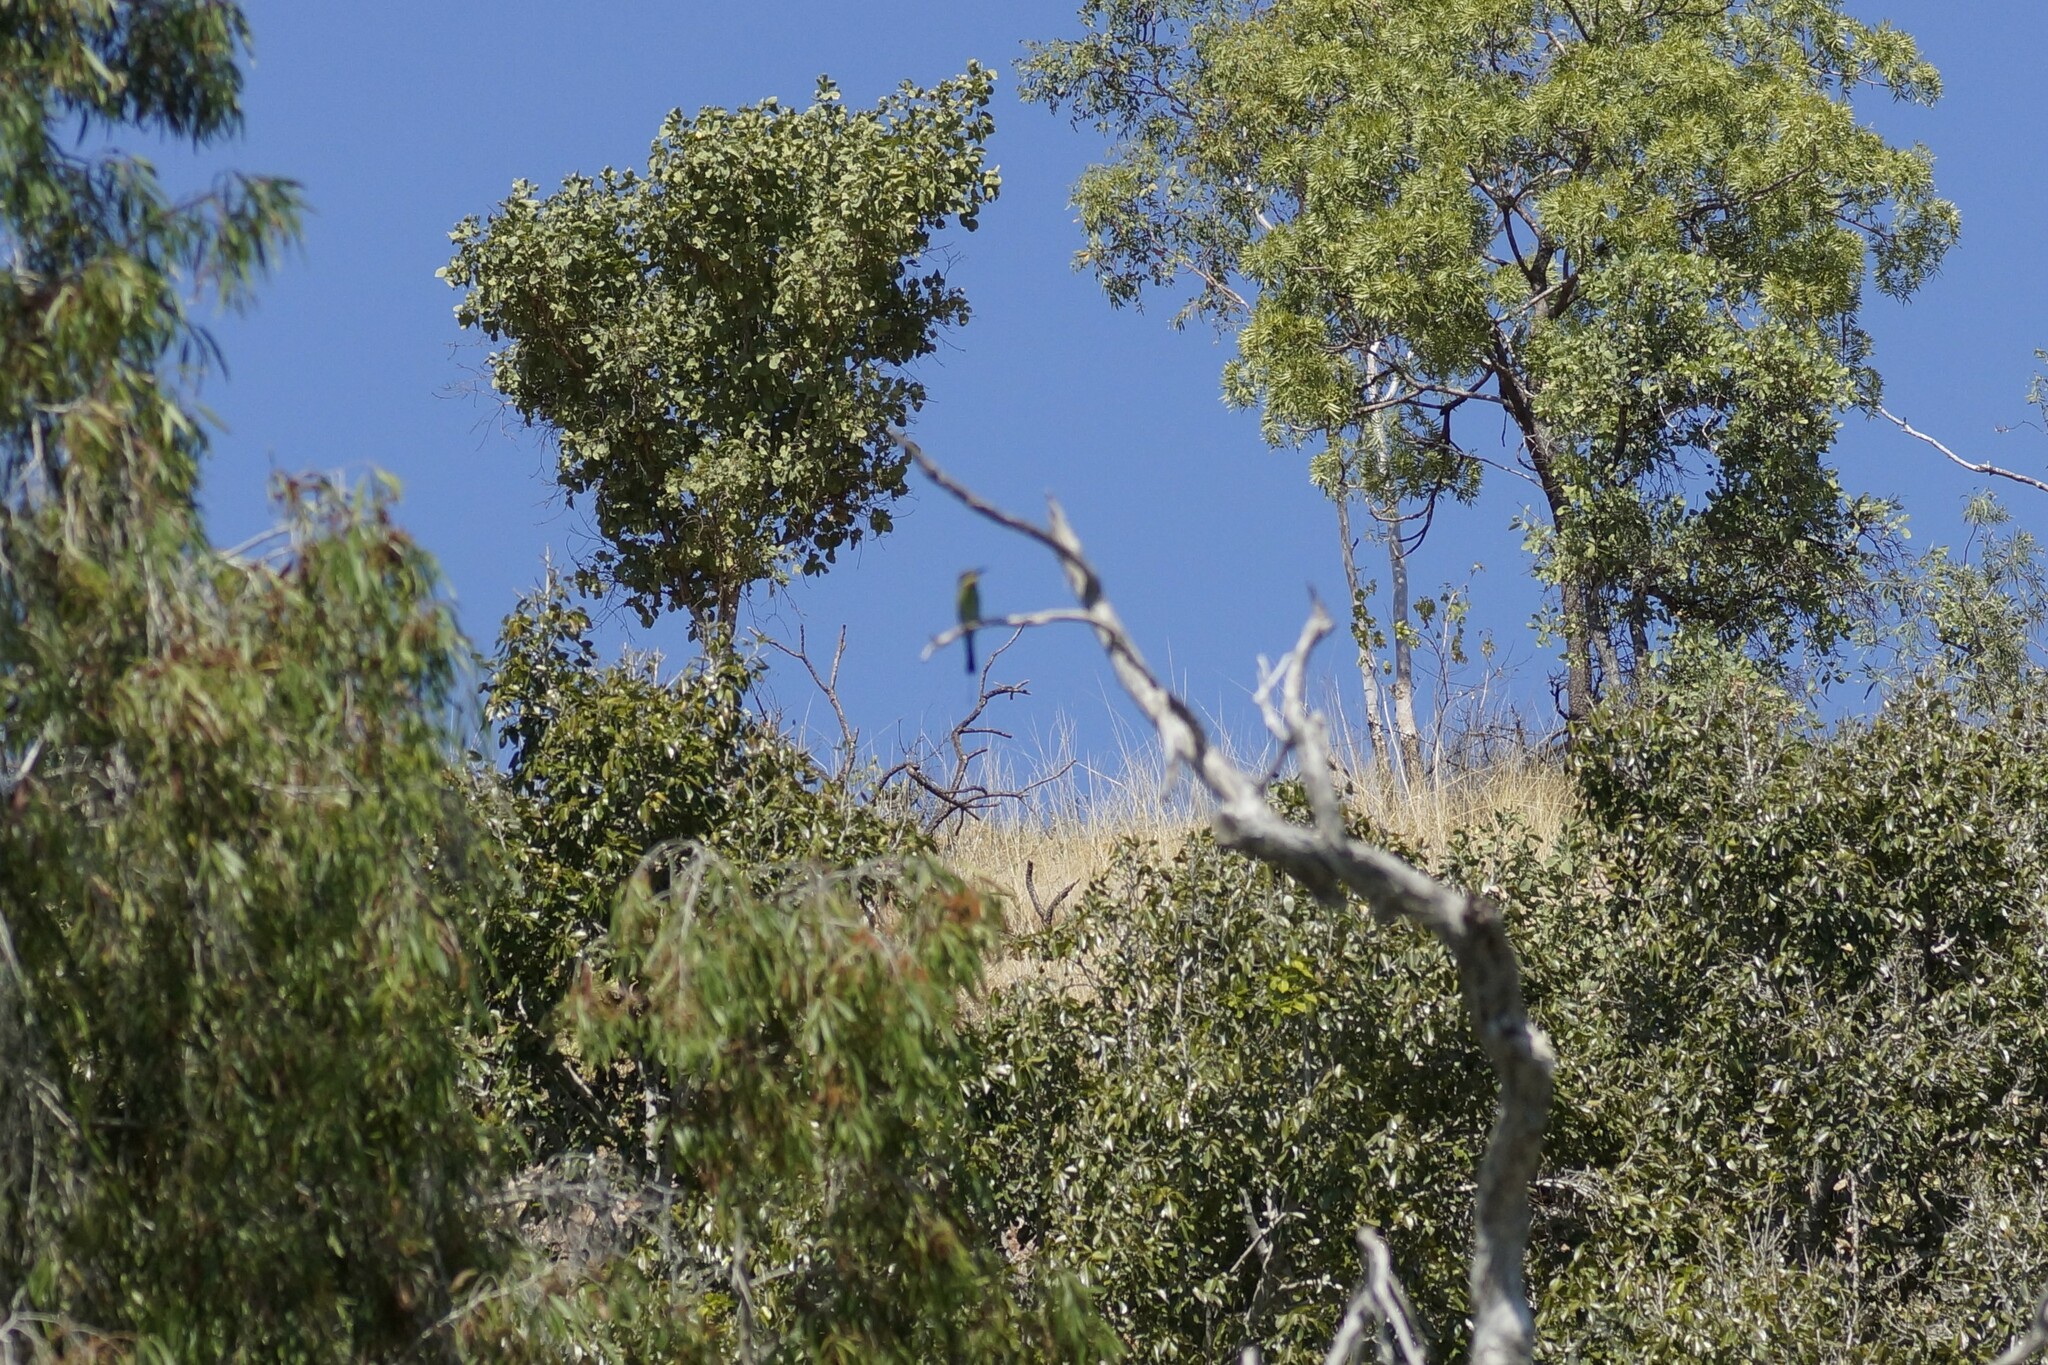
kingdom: Animalia
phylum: Chordata
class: Aves
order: Coraciiformes
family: Meropidae
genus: Merops
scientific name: Merops ornatus
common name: Rainbow bee-eater
